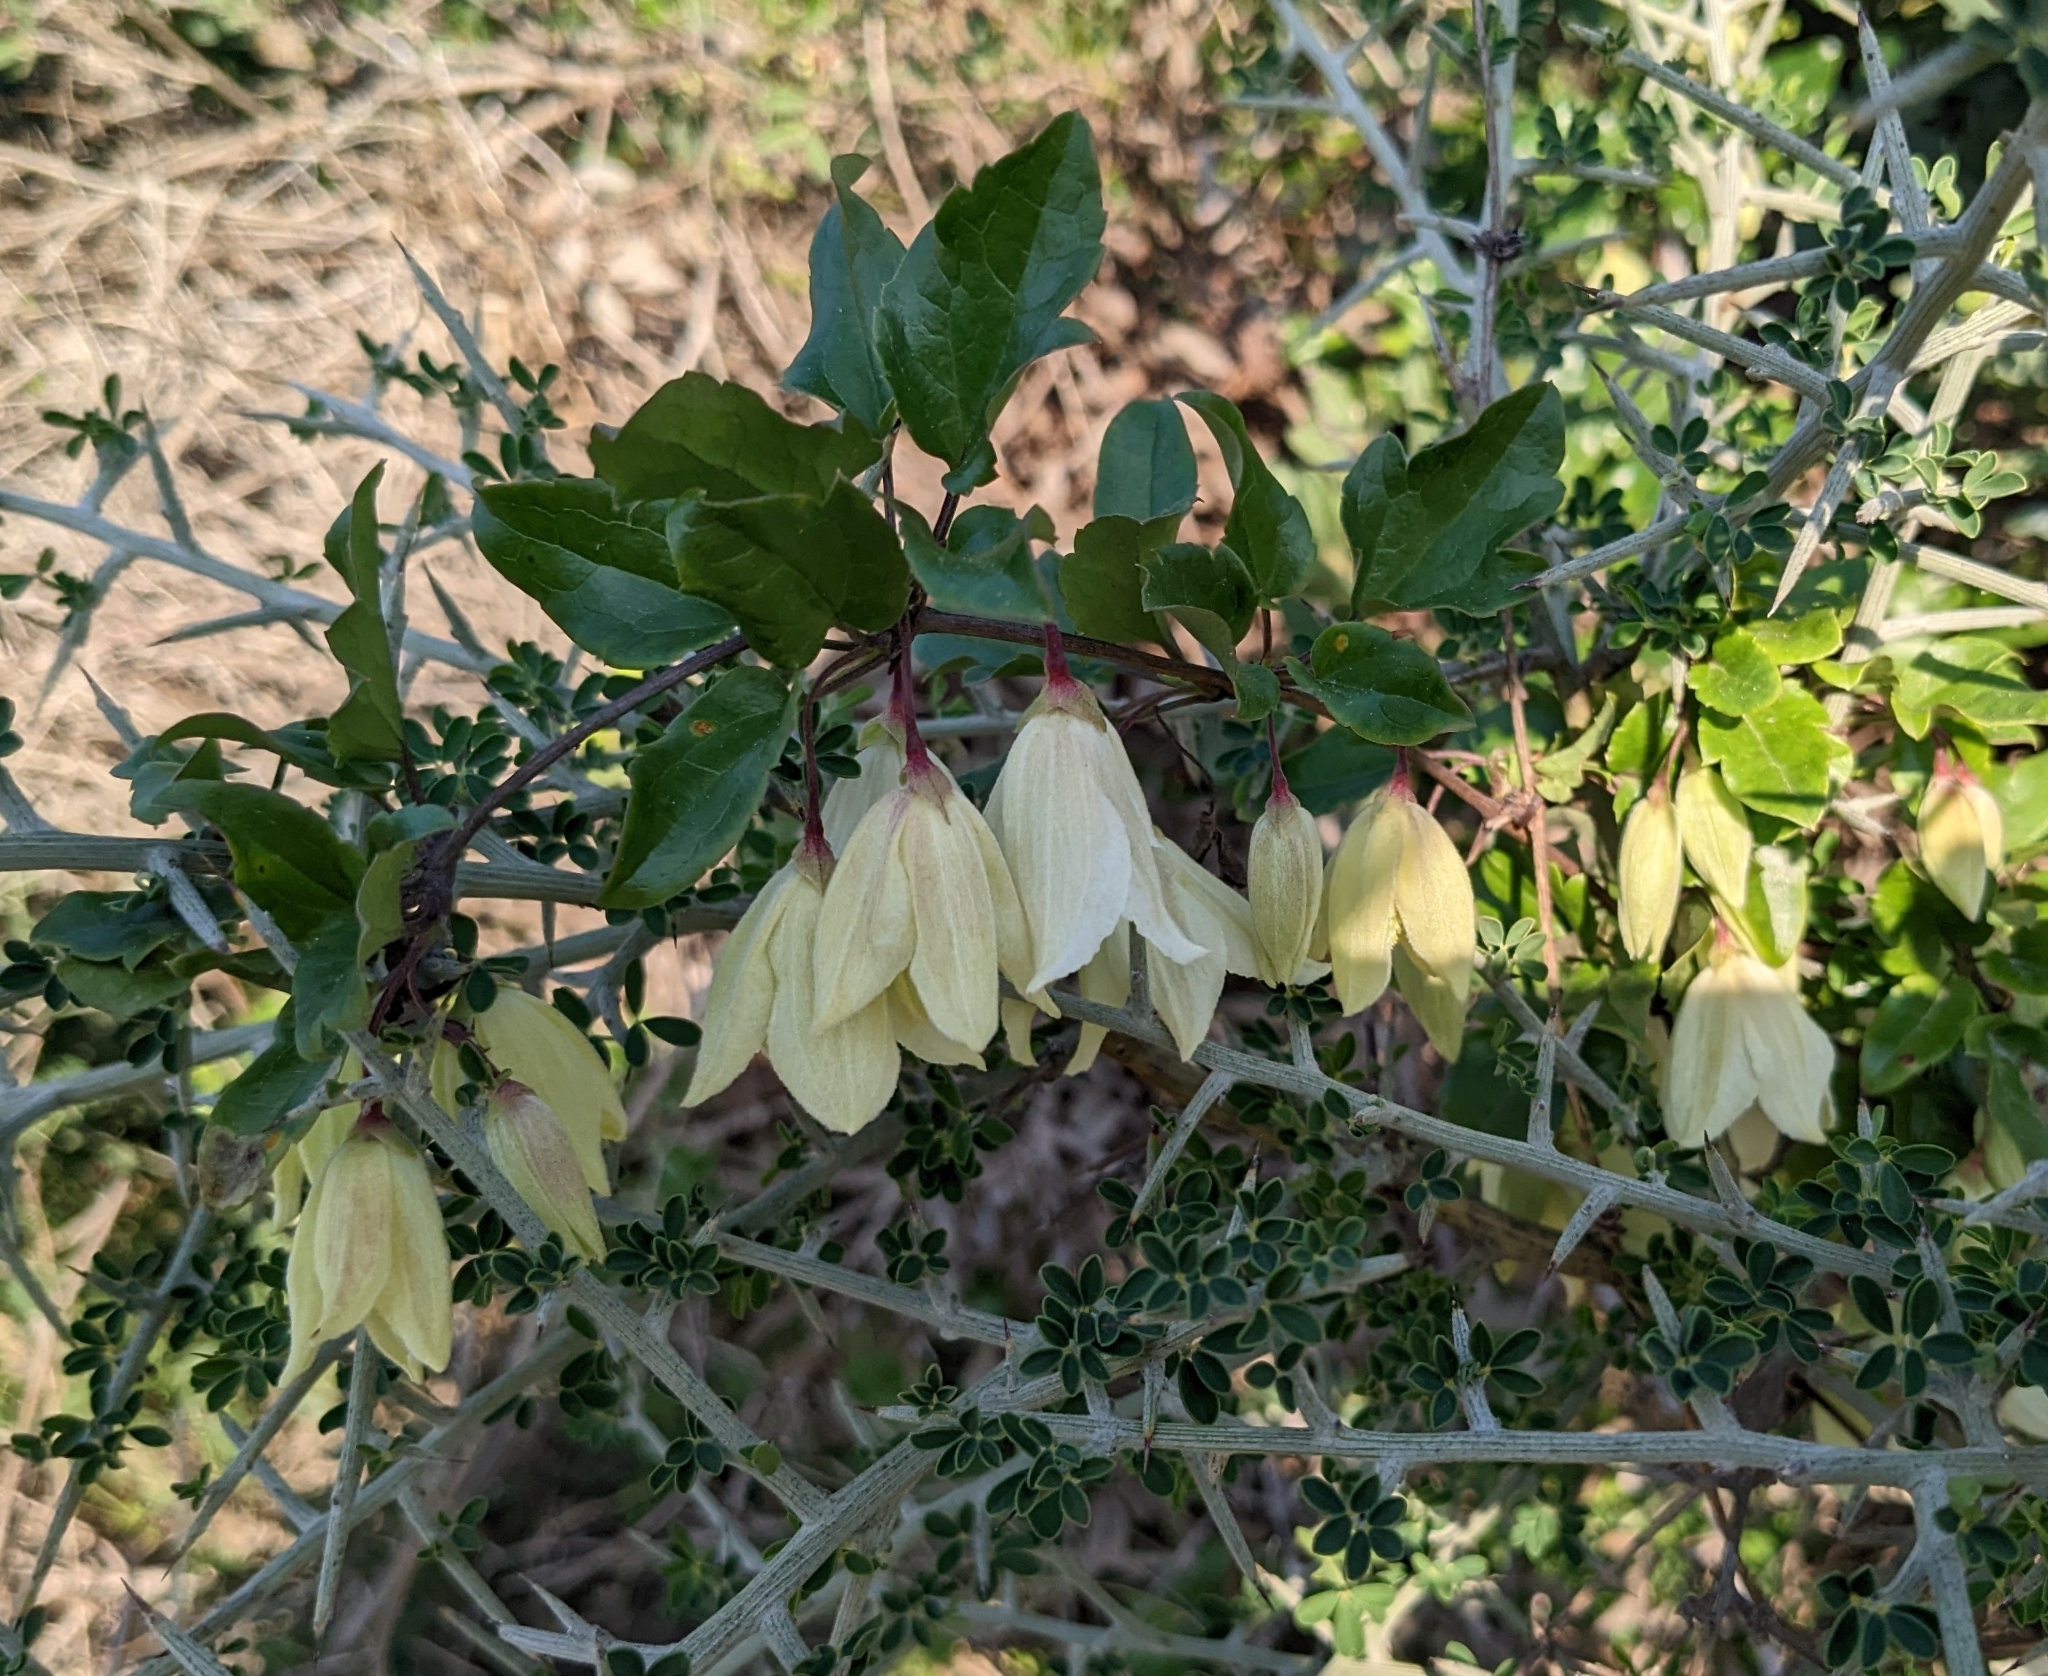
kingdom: Plantae
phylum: Tracheophyta
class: Magnoliopsida
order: Ranunculales
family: Ranunculaceae
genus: Clematis
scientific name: Clematis cirrhosa
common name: Early virgin's-bower
